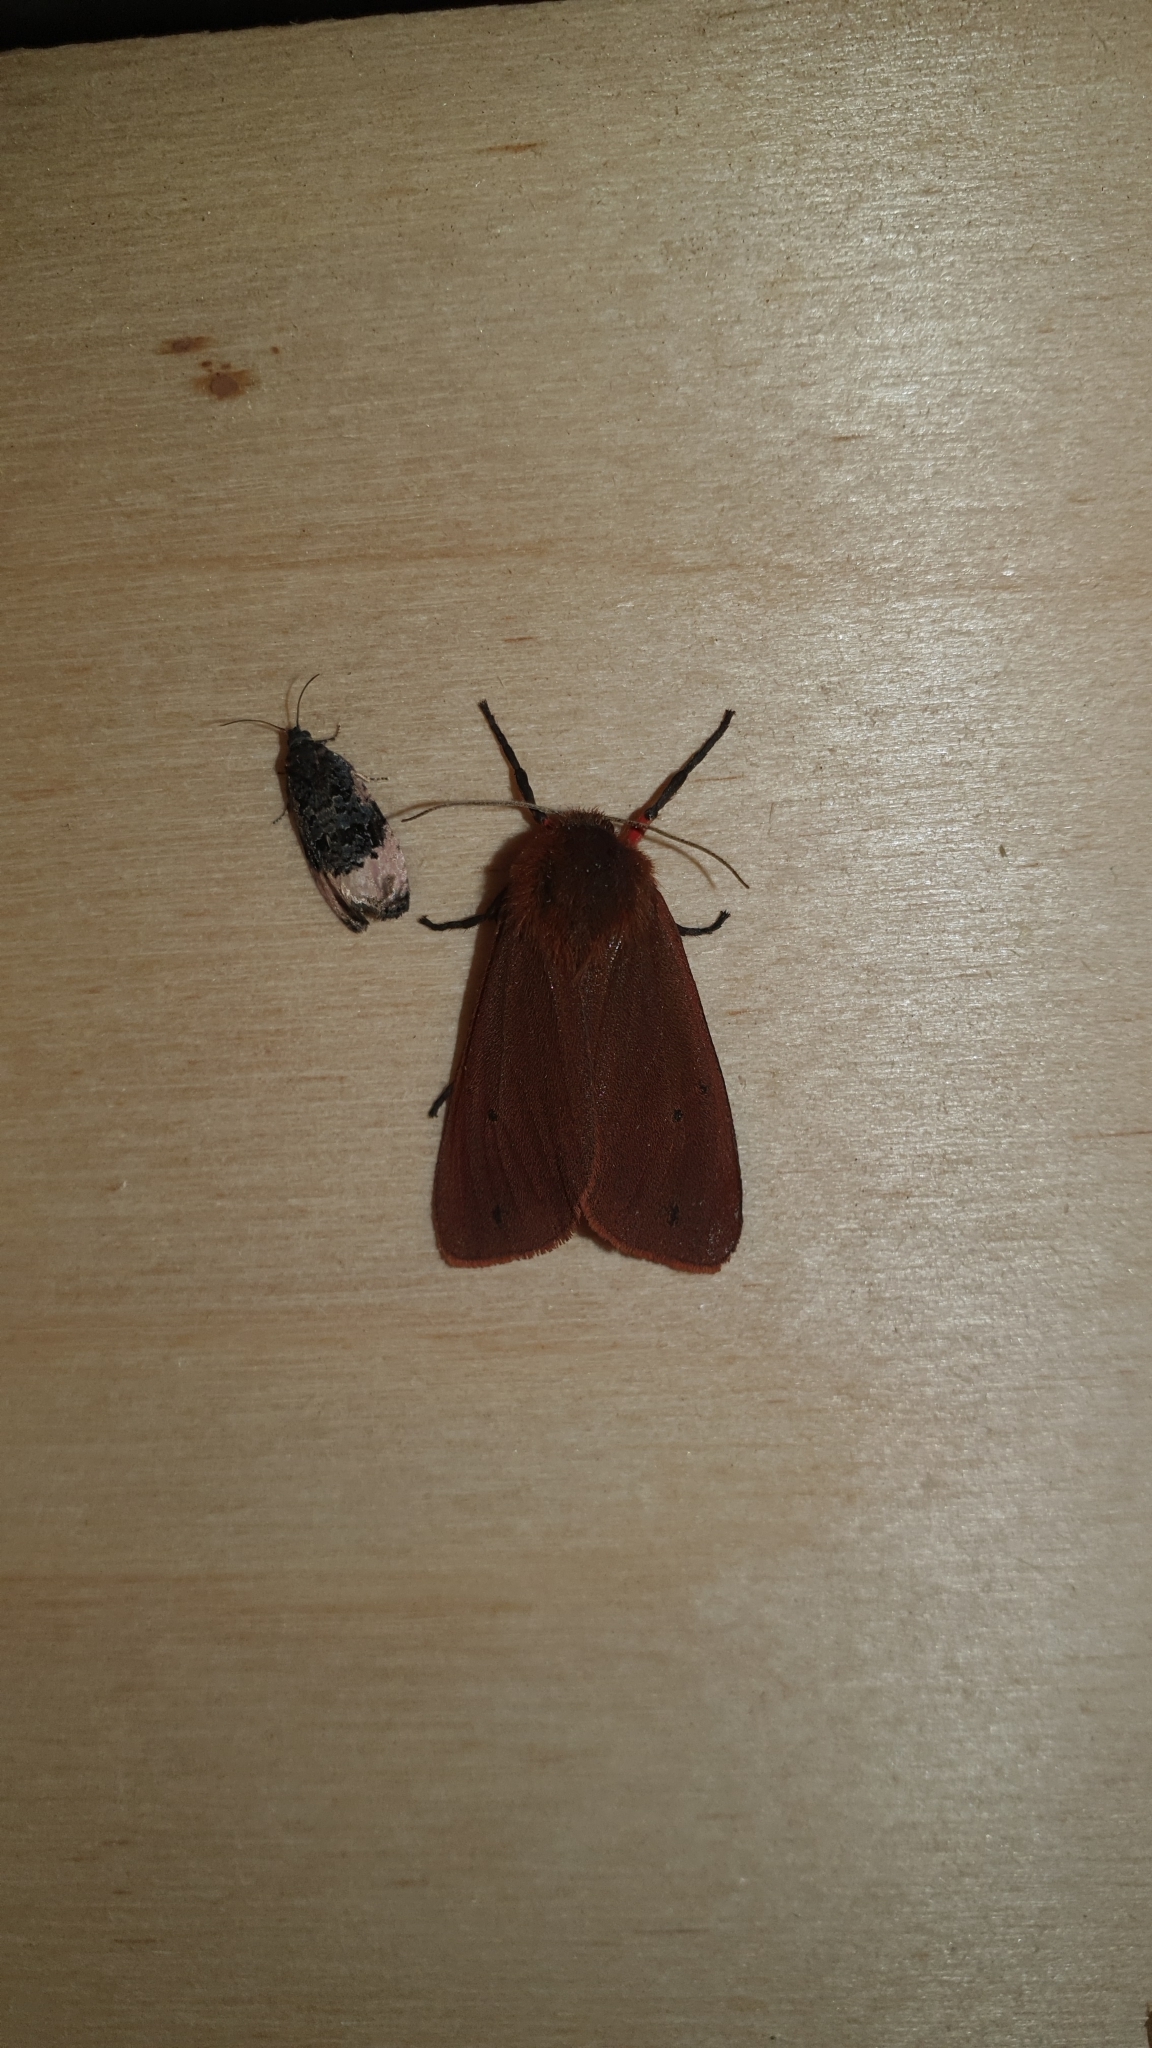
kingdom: Animalia
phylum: Arthropoda
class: Insecta
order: Lepidoptera
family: Erebidae
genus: Phragmatobia
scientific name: Phragmatobia fuliginosa
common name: Ruby tiger
